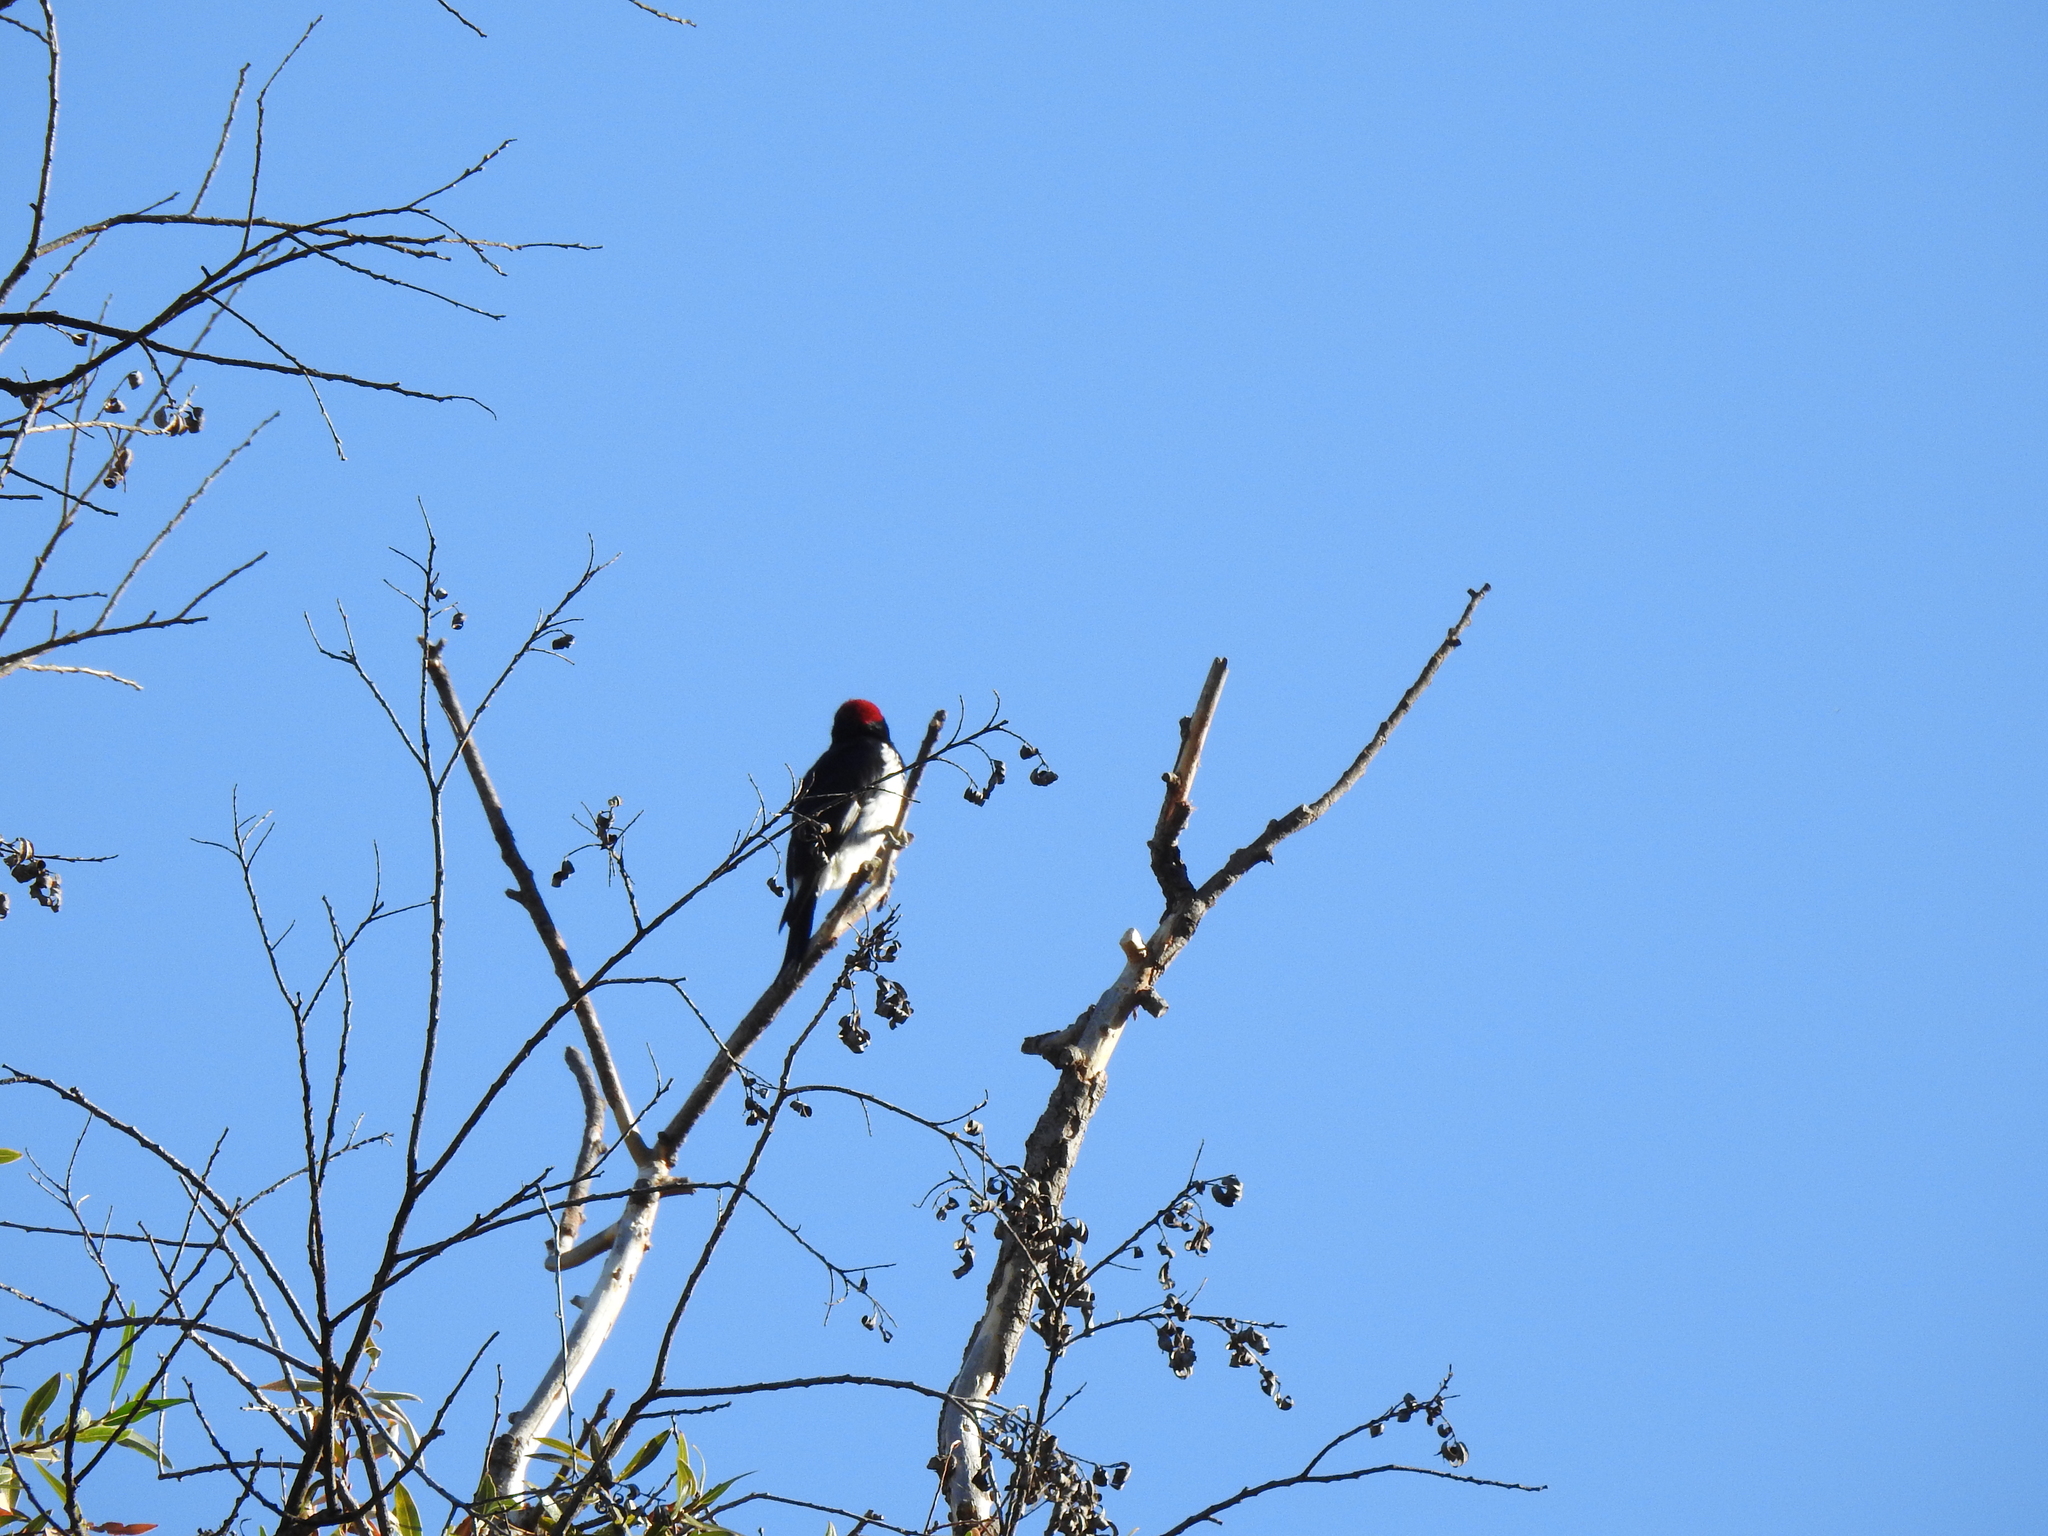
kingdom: Animalia
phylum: Chordata
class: Aves
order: Piciformes
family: Picidae
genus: Melanerpes
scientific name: Melanerpes formicivorus
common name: Acorn woodpecker
